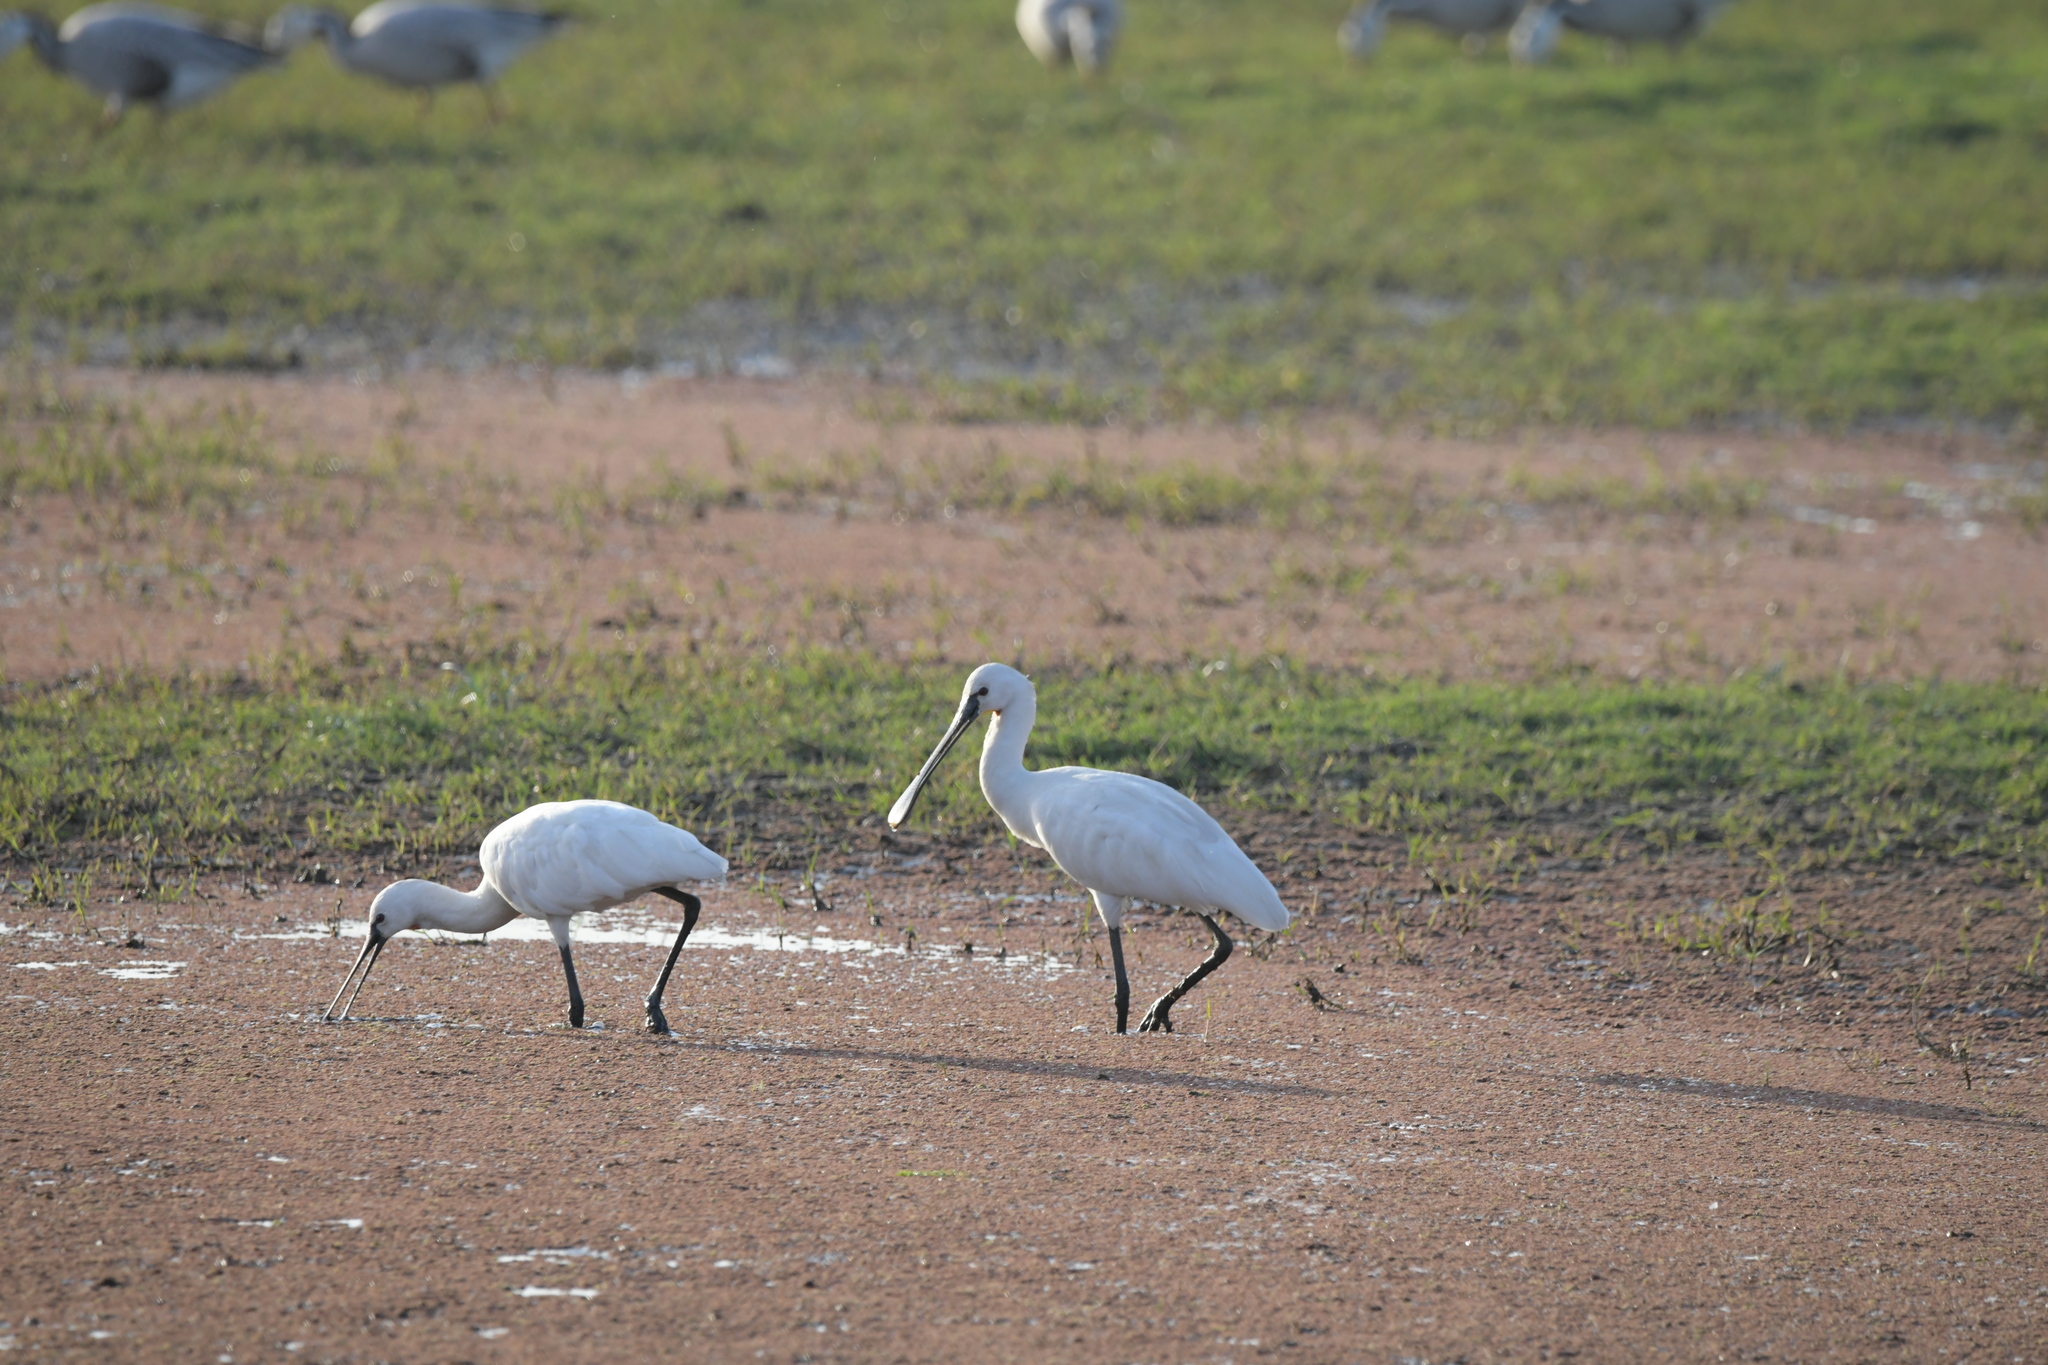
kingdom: Animalia
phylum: Chordata
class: Aves
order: Pelecaniformes
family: Threskiornithidae
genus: Platalea
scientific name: Platalea leucorodia
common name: Eurasian spoonbill
